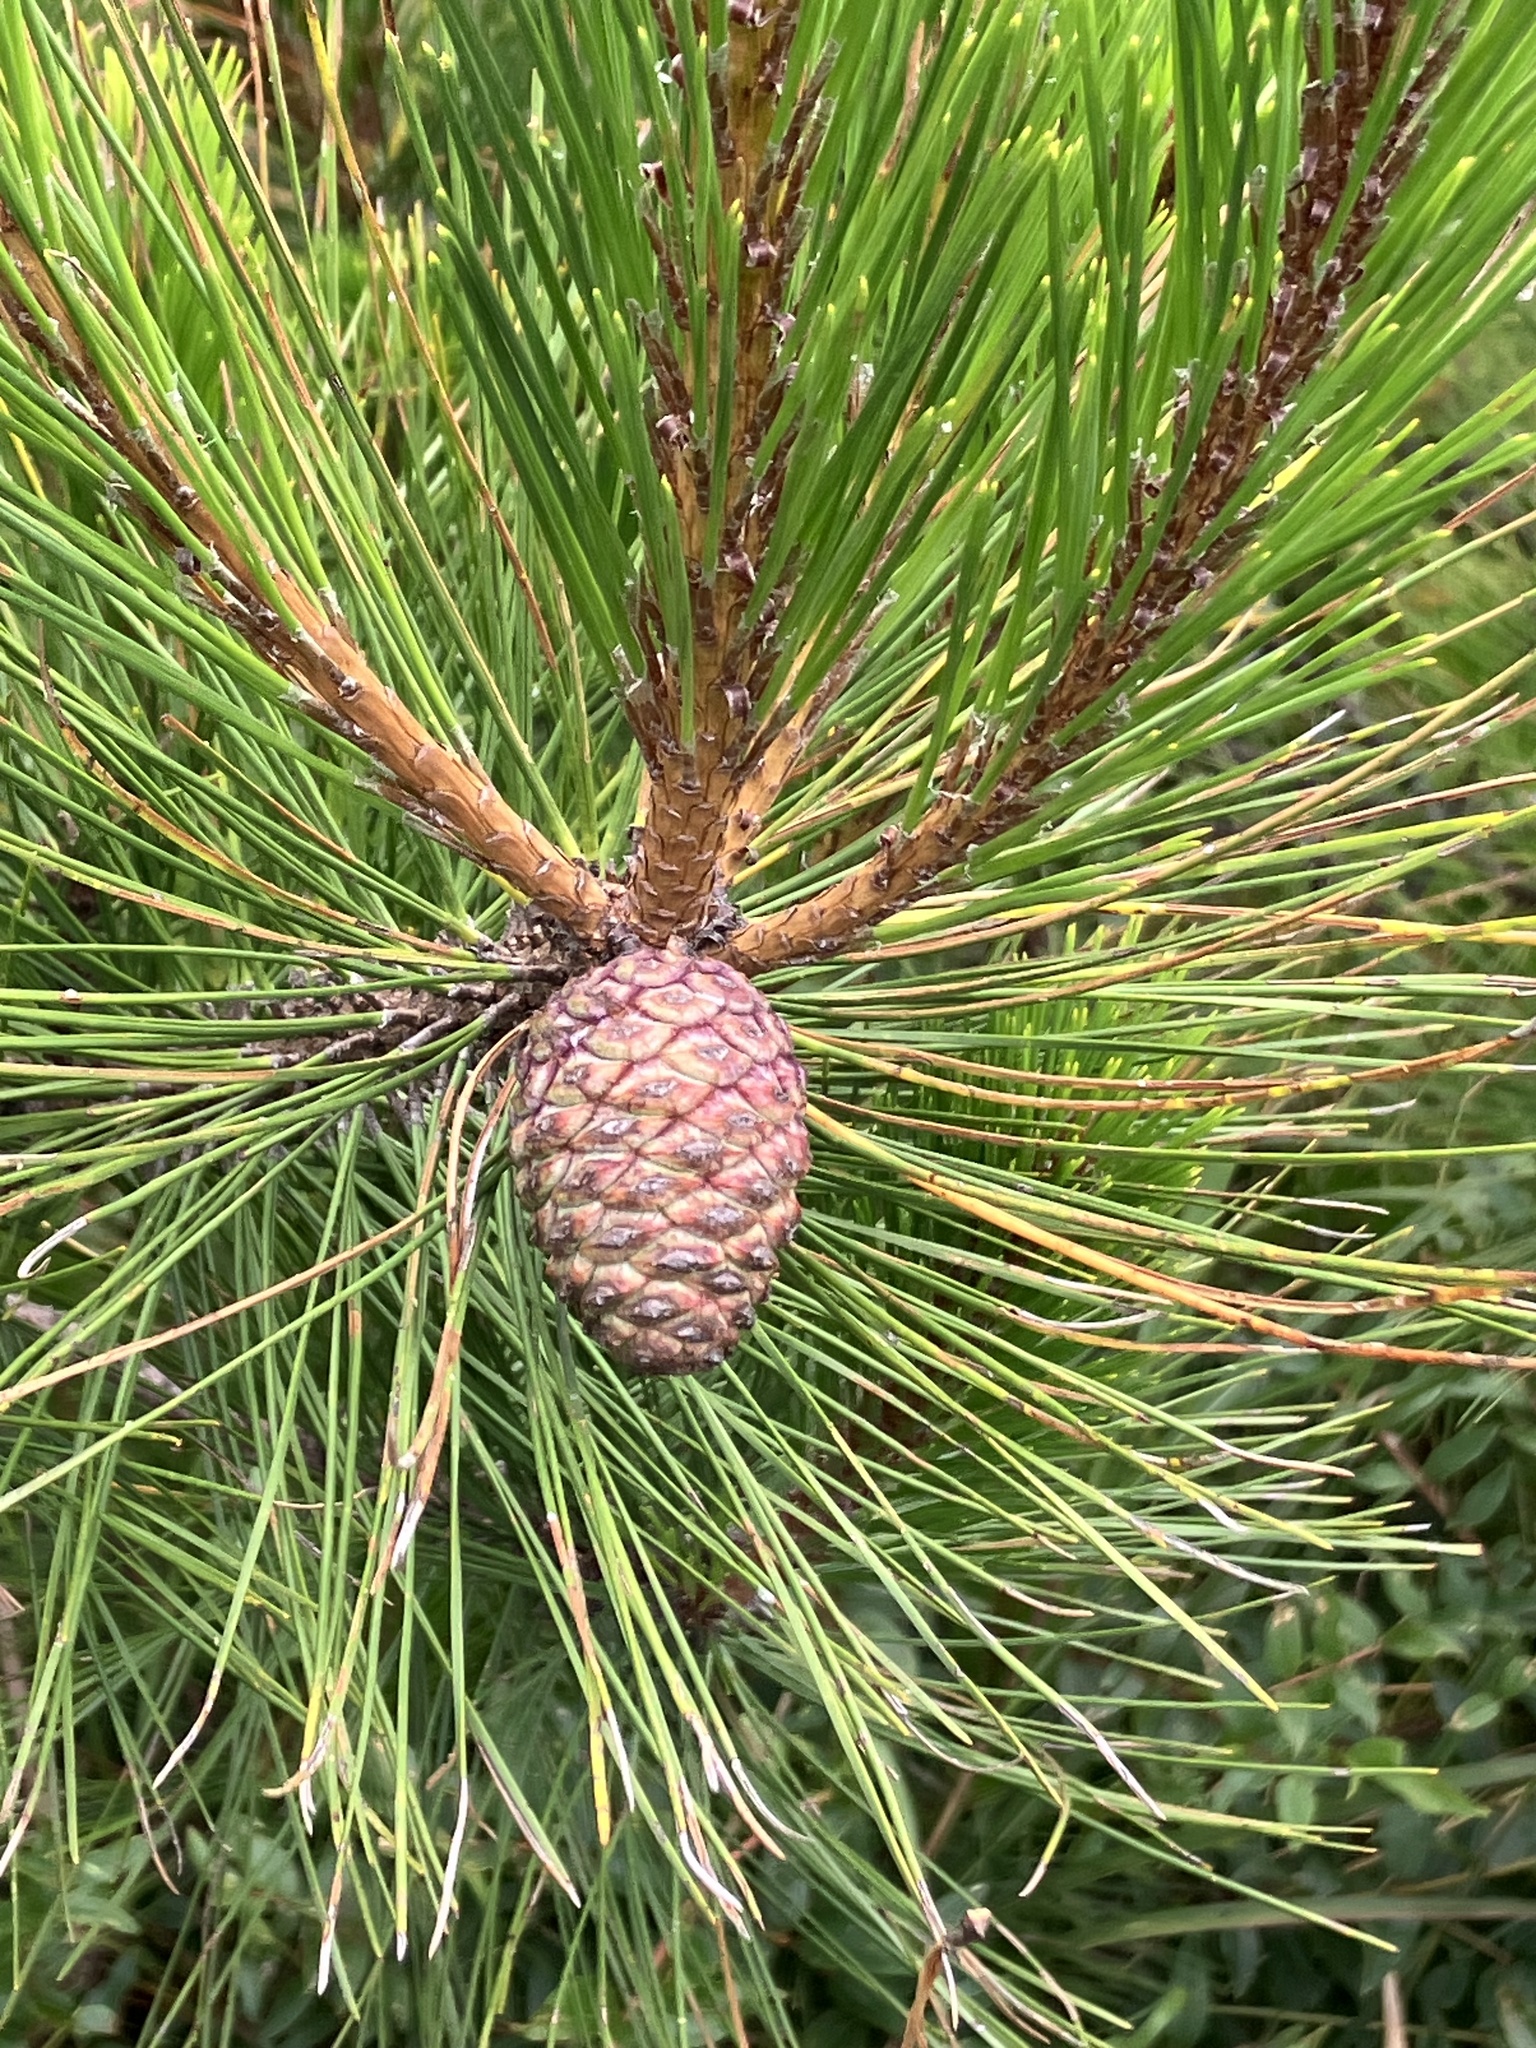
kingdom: Plantae
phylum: Tracheophyta
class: Pinopsida
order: Pinales
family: Pinaceae
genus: Pinus
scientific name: Pinus taiwanensis
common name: Formosa pine
